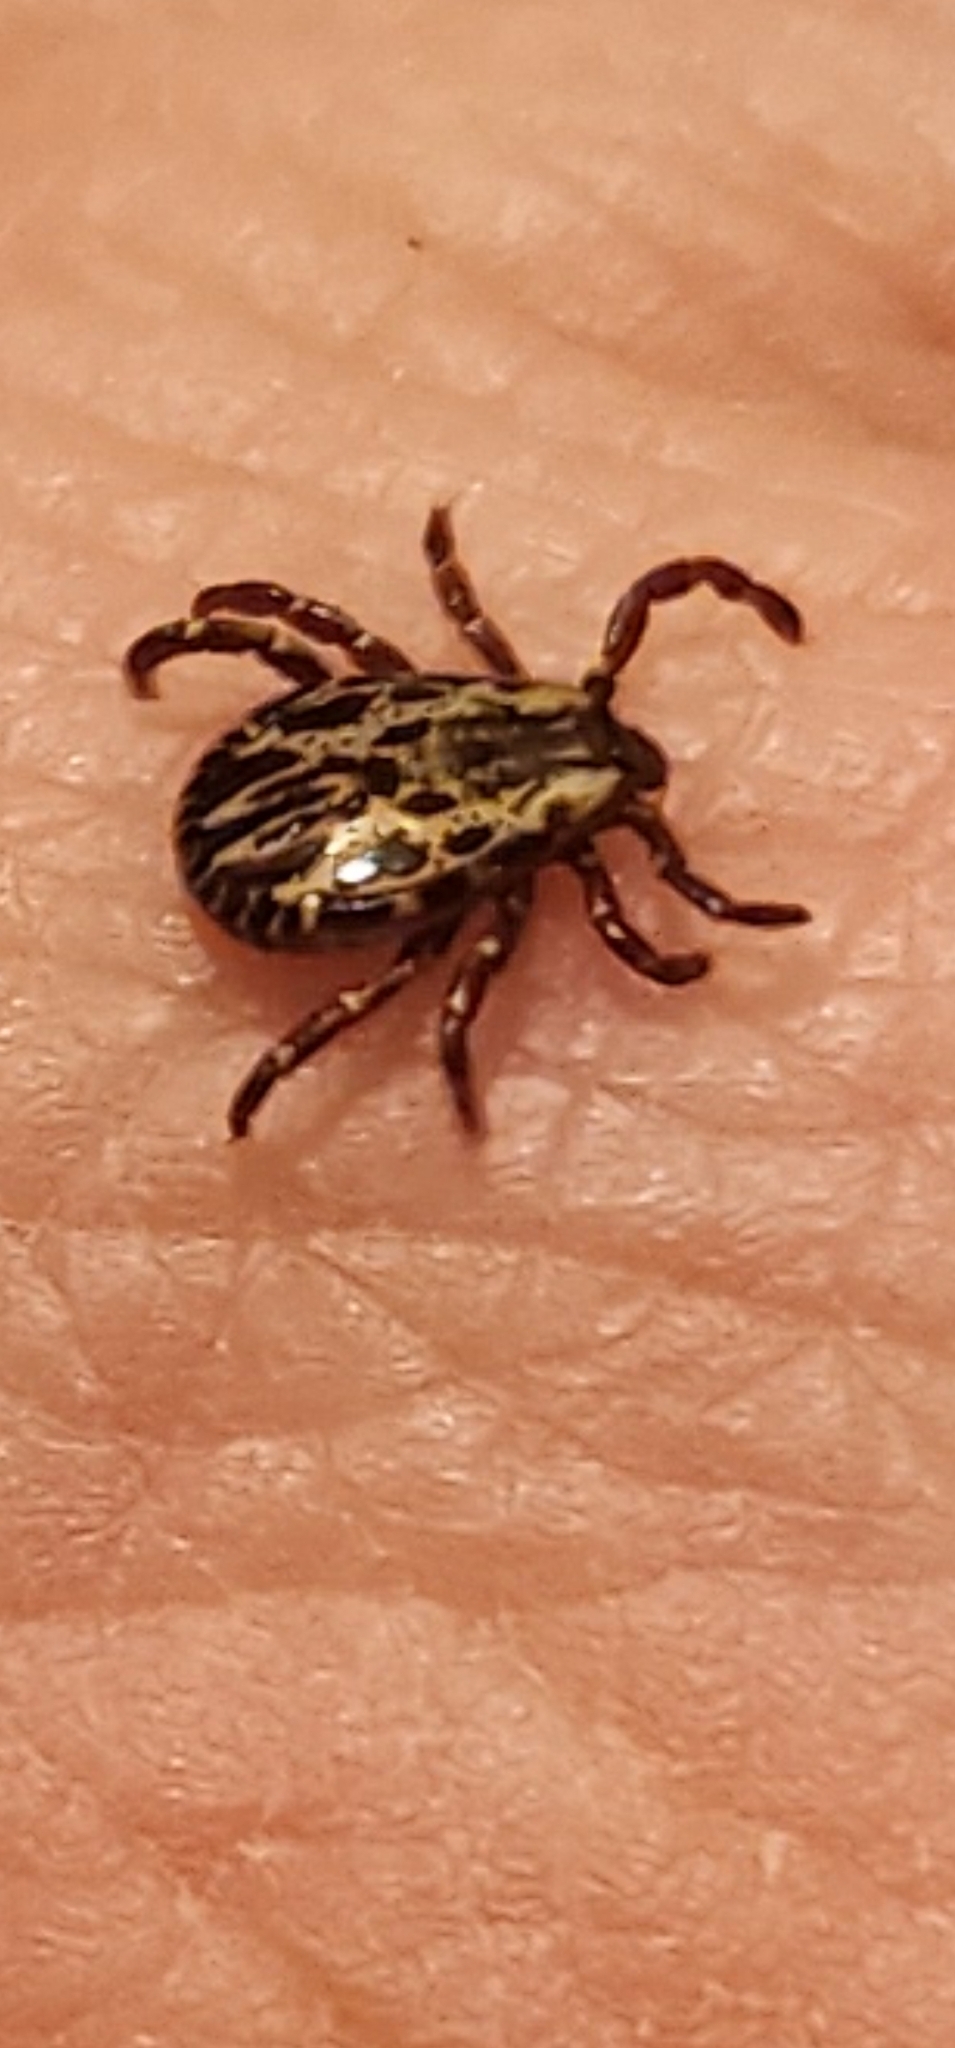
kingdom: Animalia
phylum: Arthropoda
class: Arachnida
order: Ixodida
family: Ixodidae
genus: Dermacentor
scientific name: Dermacentor variabilis
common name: American dog tick
